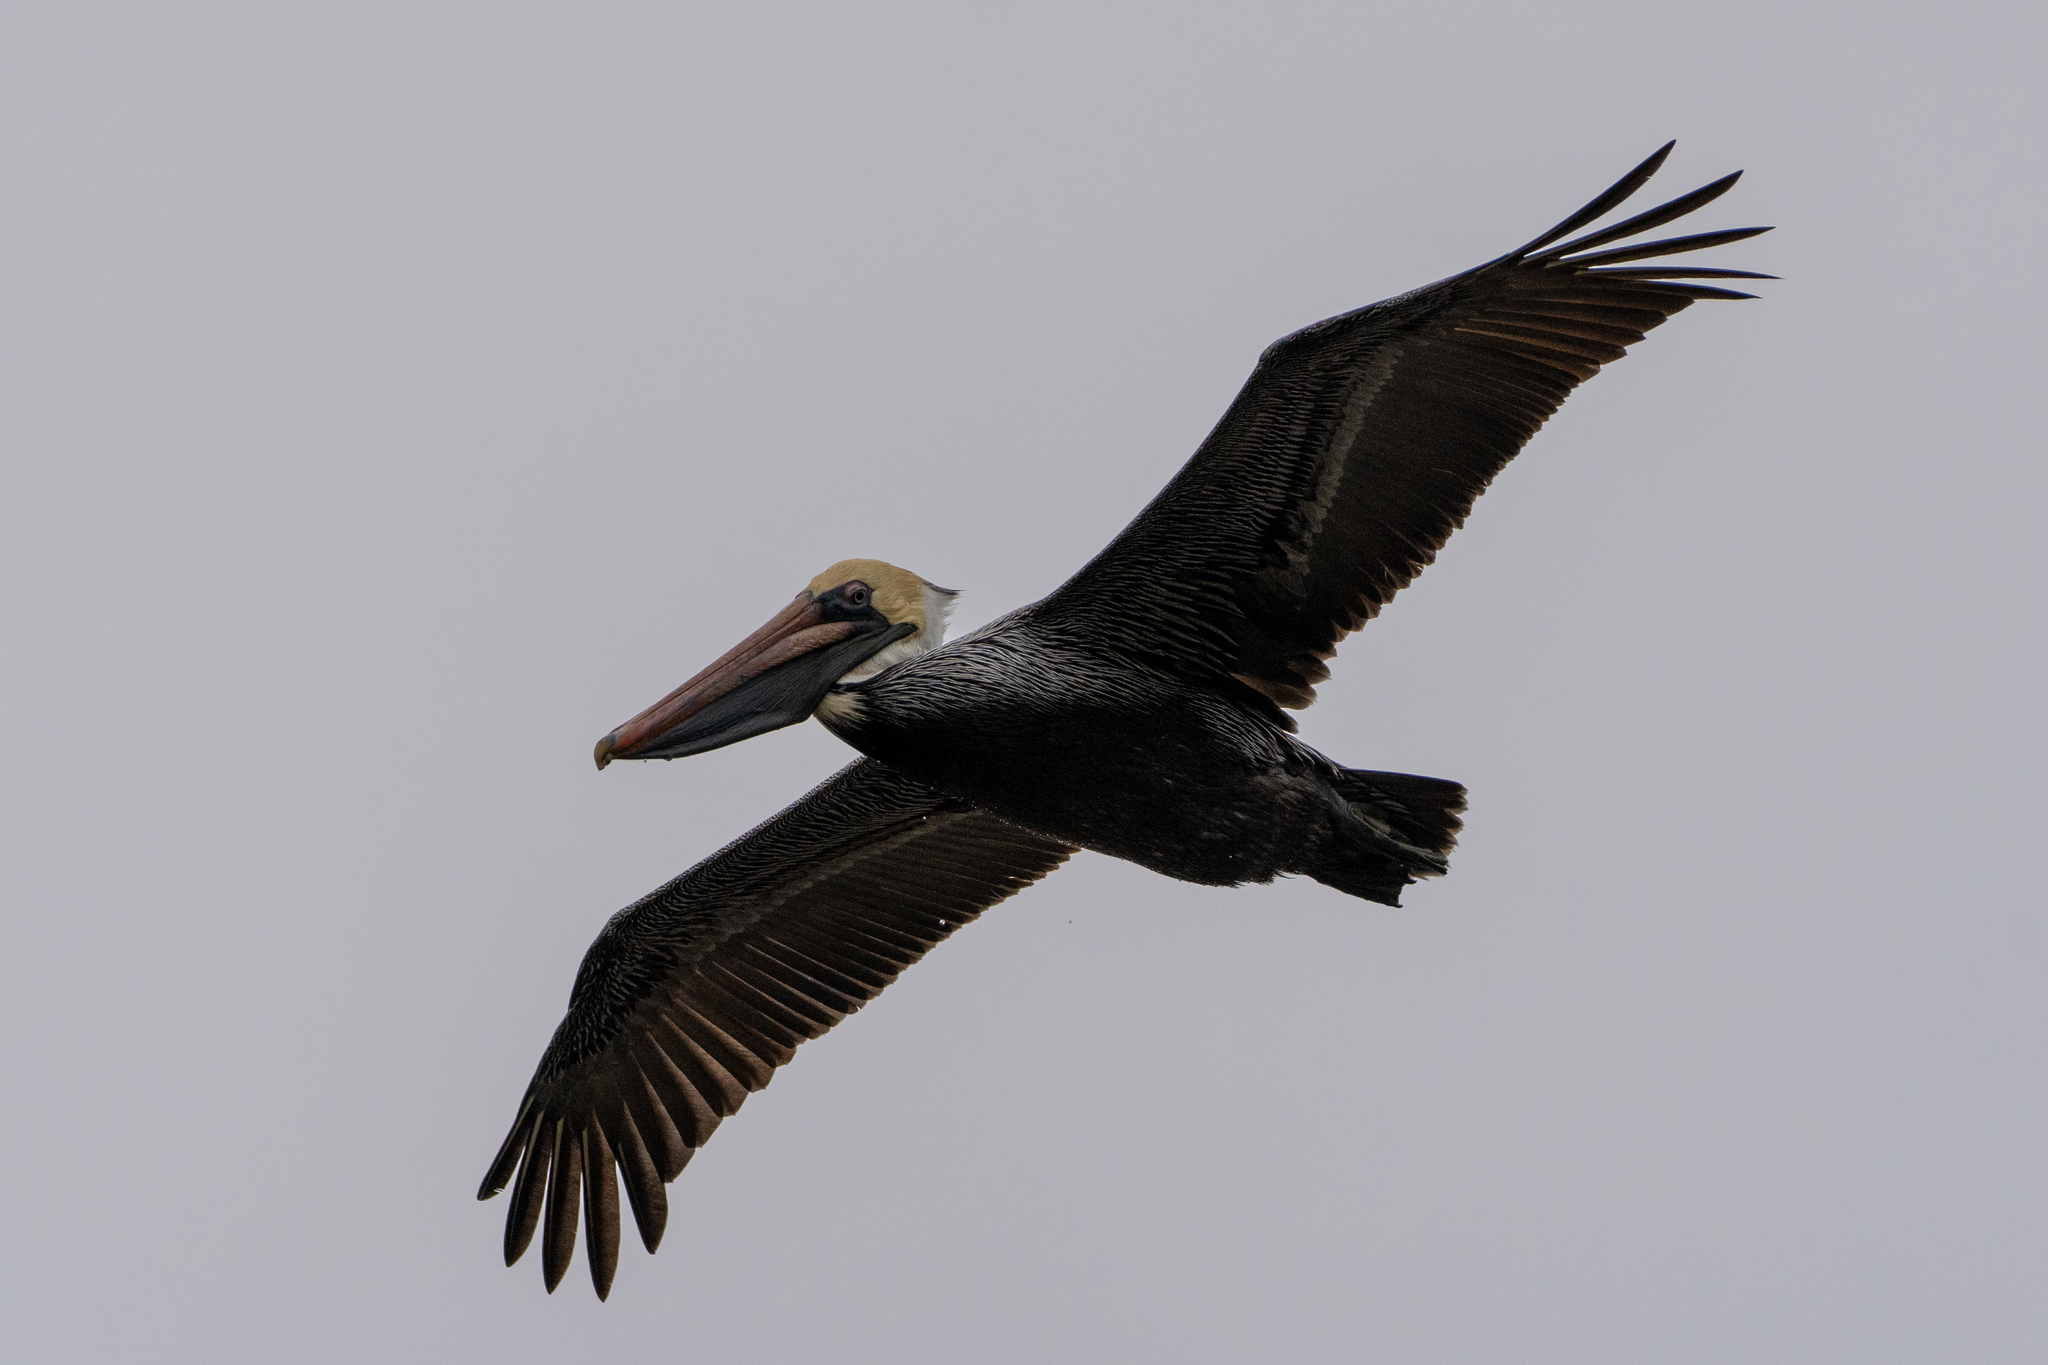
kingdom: Animalia
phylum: Chordata
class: Aves
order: Pelecaniformes
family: Pelecanidae
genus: Pelecanus
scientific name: Pelecanus occidentalis
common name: Brown pelican
